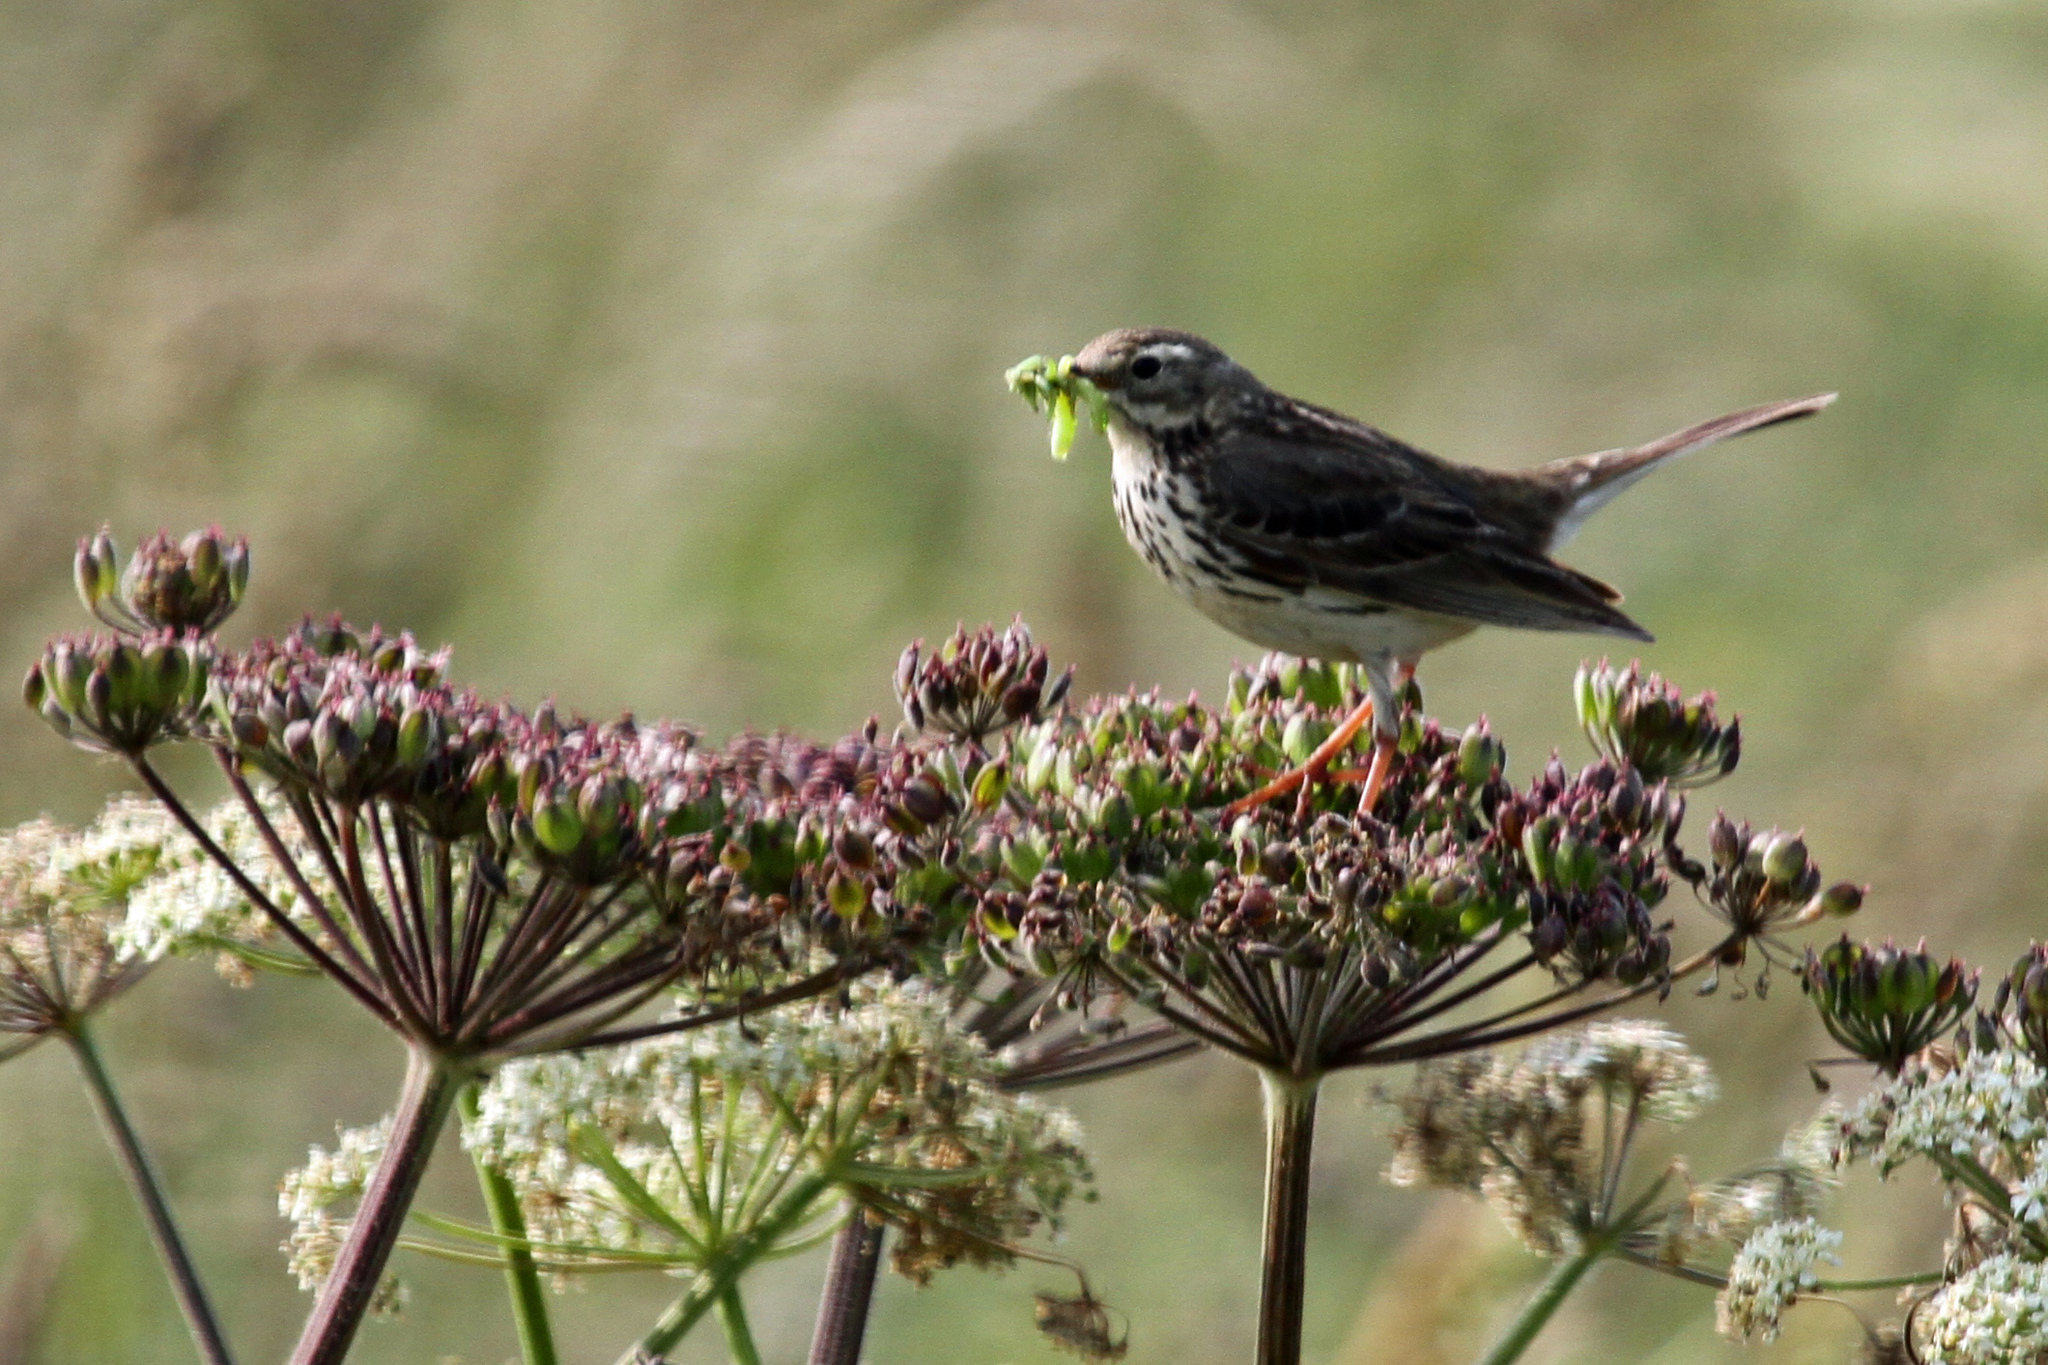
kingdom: Animalia
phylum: Chordata
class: Aves
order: Passeriformes
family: Motacillidae
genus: Anthus
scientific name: Anthus pratensis
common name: Meadow pipit
